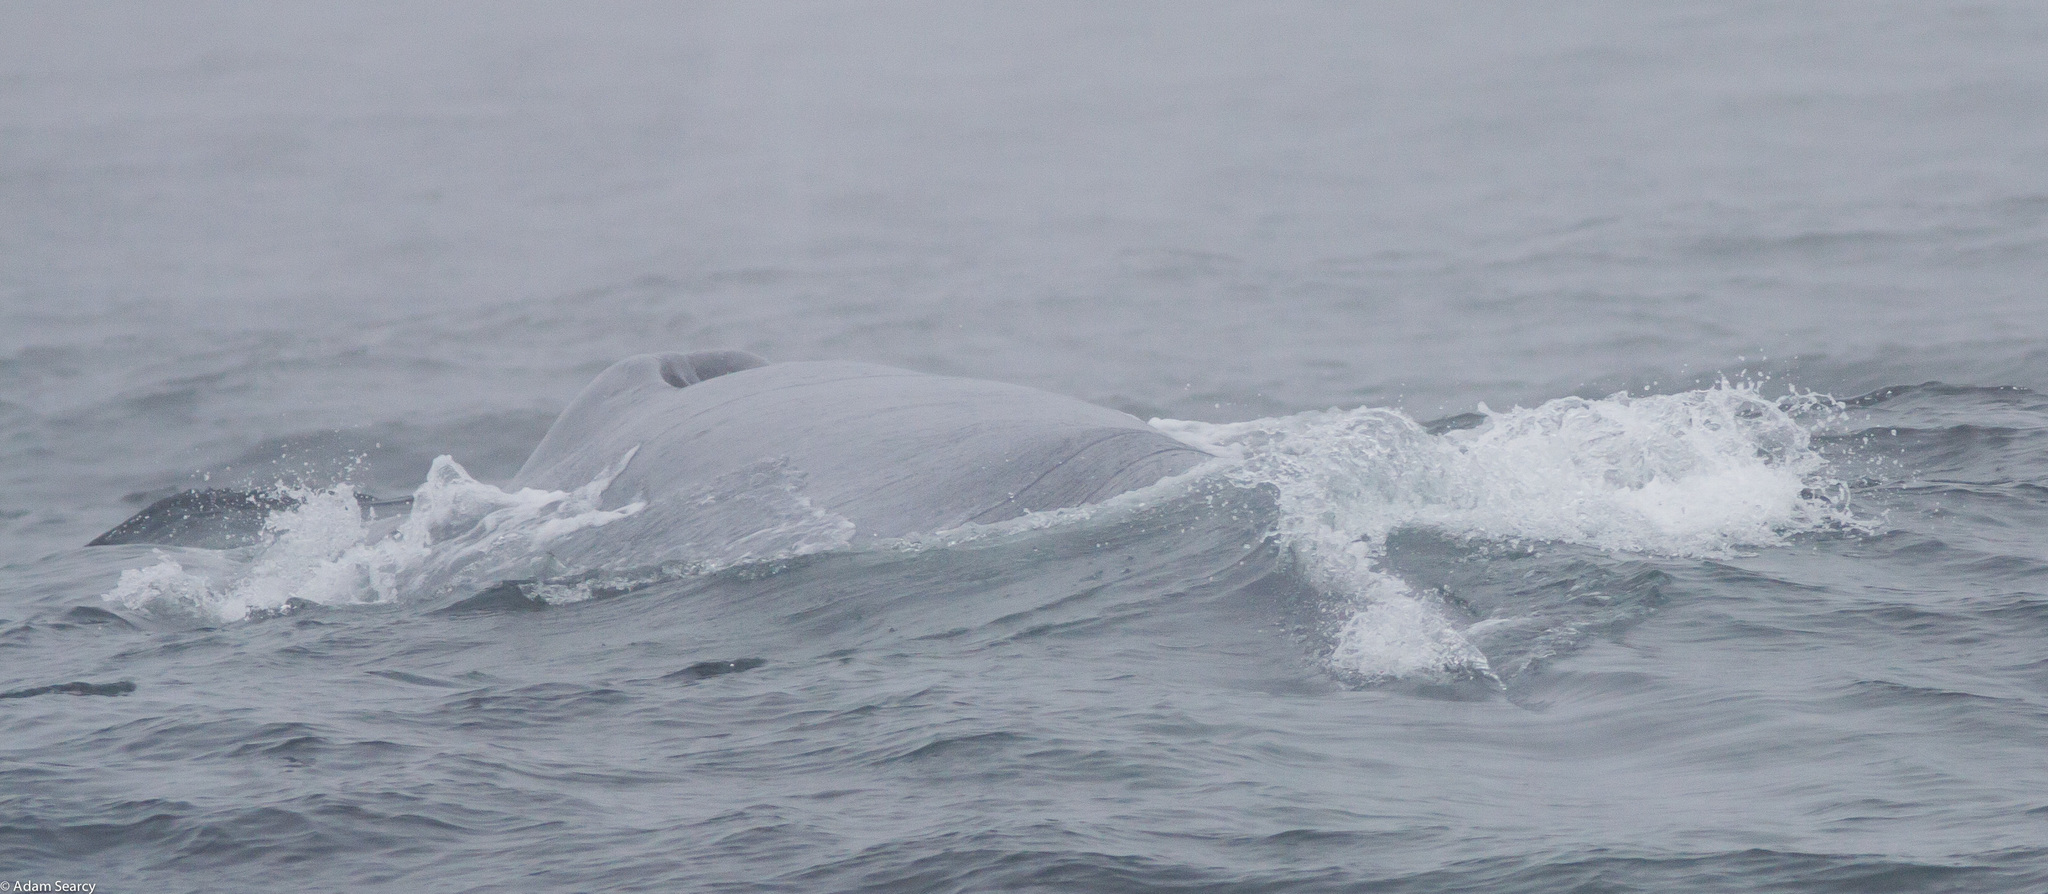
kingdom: Animalia
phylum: Chordata
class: Mammalia
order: Cetacea
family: Balaenopteridae
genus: Balaenoptera
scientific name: Balaenoptera musculus
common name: Blue whale
